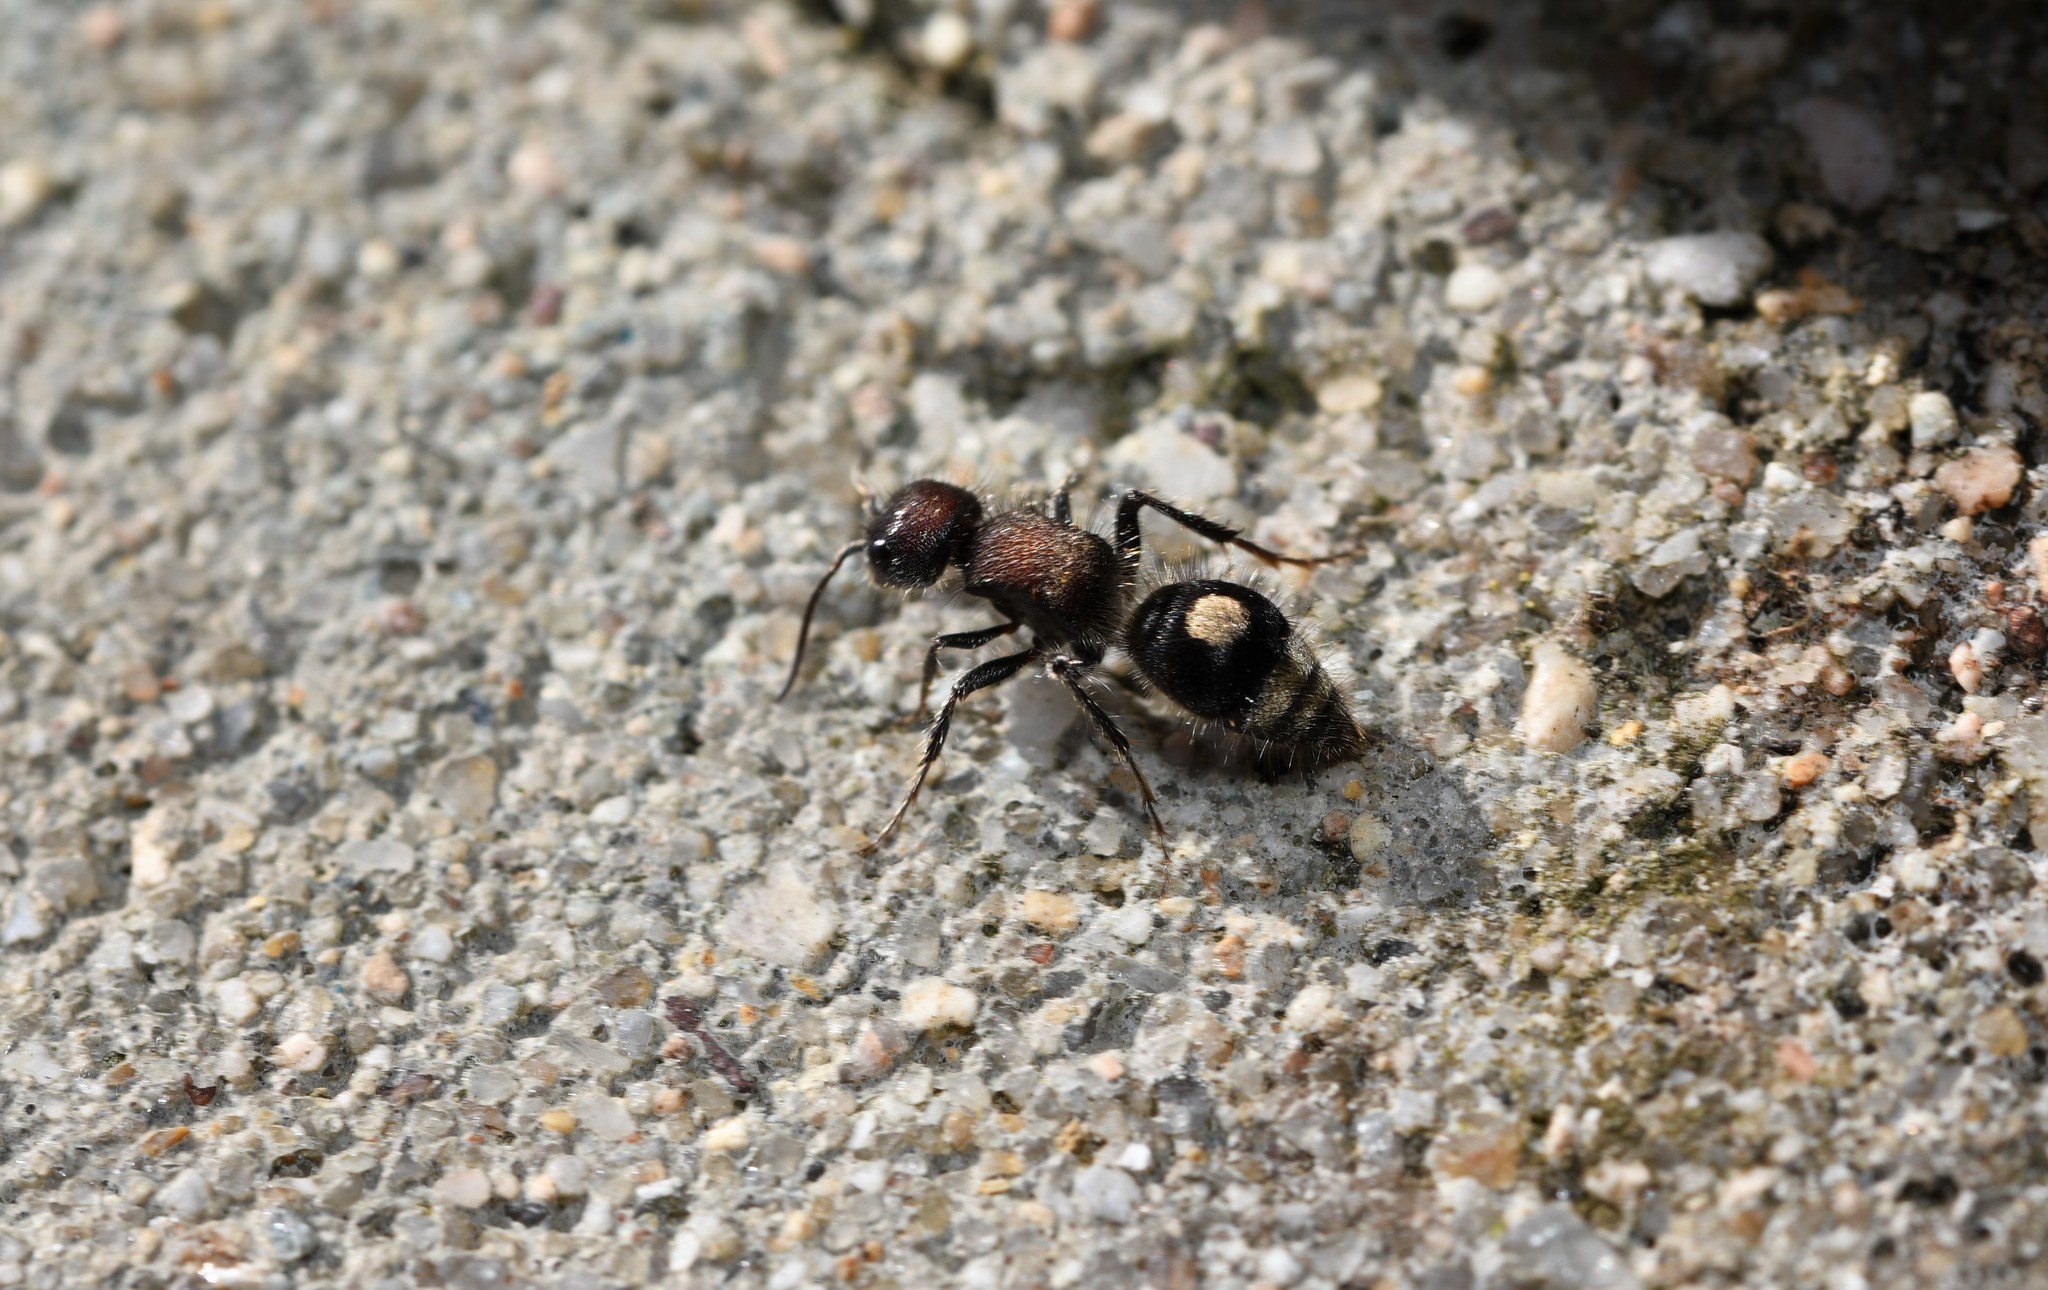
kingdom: Animalia
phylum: Arthropoda
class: Insecta
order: Hymenoptera
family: Mutillidae
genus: Sigilla
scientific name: Sigilla dorsata
